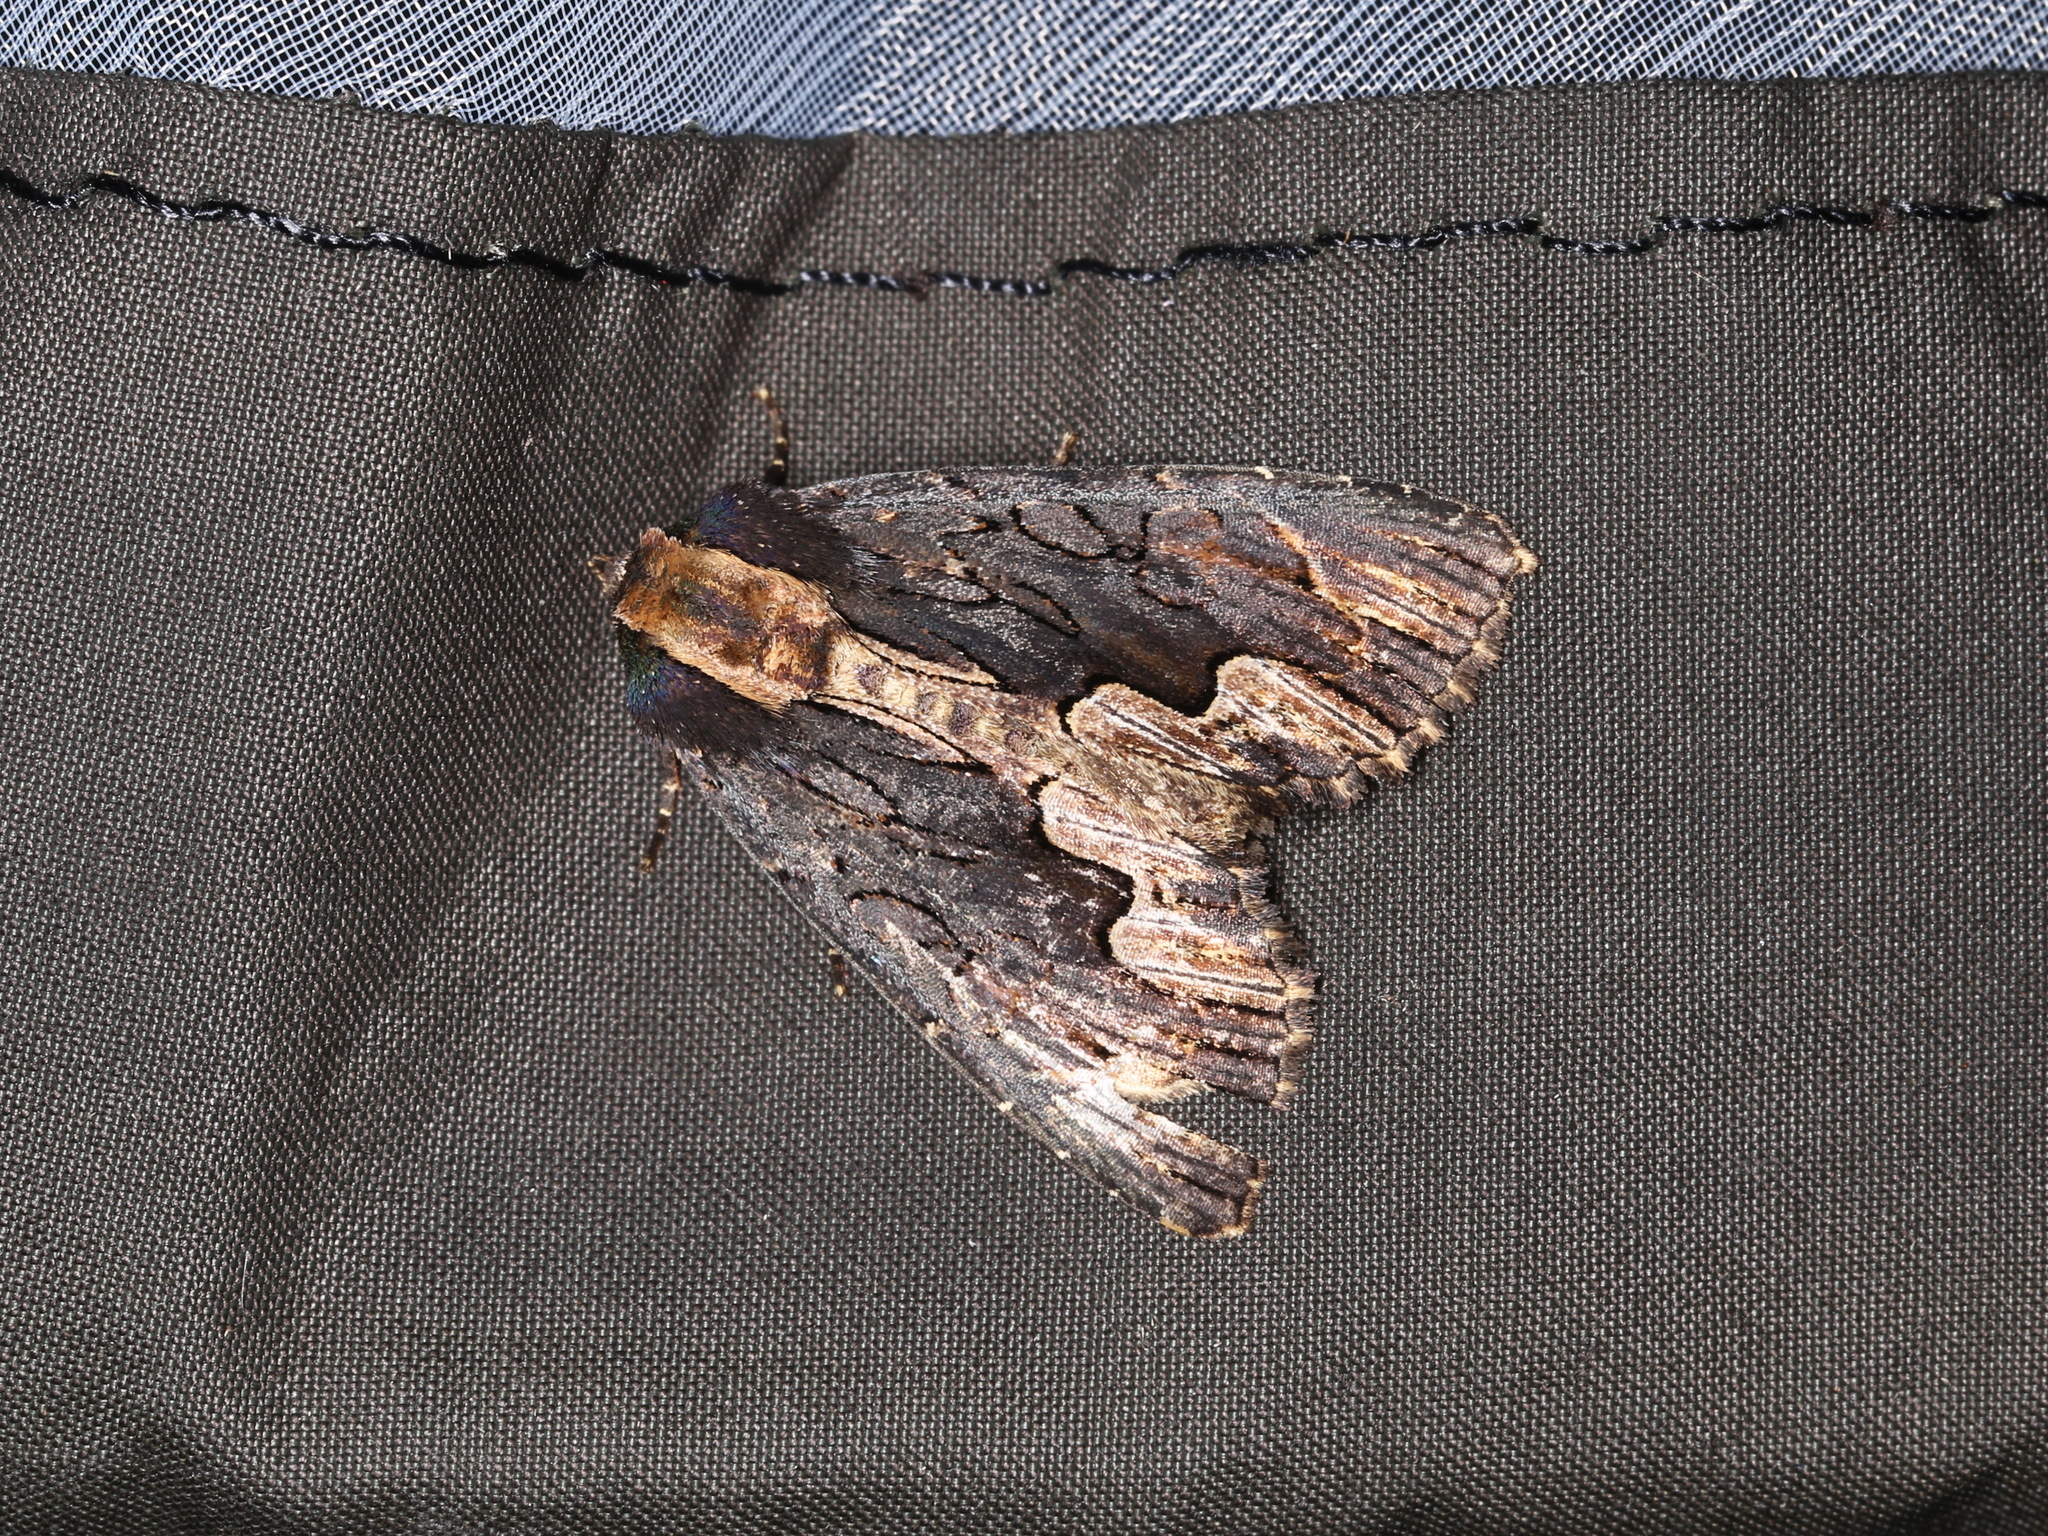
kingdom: Animalia
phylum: Arthropoda
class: Insecta
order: Lepidoptera
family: Noctuidae
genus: Dypterygia
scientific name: Dypterygia scabriuscula
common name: Bird's wing
